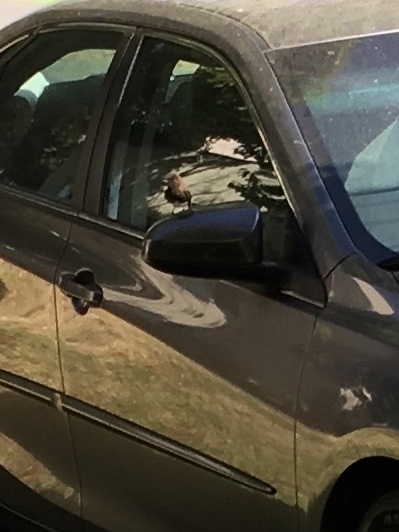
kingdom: Animalia
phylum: Chordata
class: Aves
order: Passeriformes
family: Tyrannidae
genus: Sayornis
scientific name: Sayornis nigricans
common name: Black phoebe
